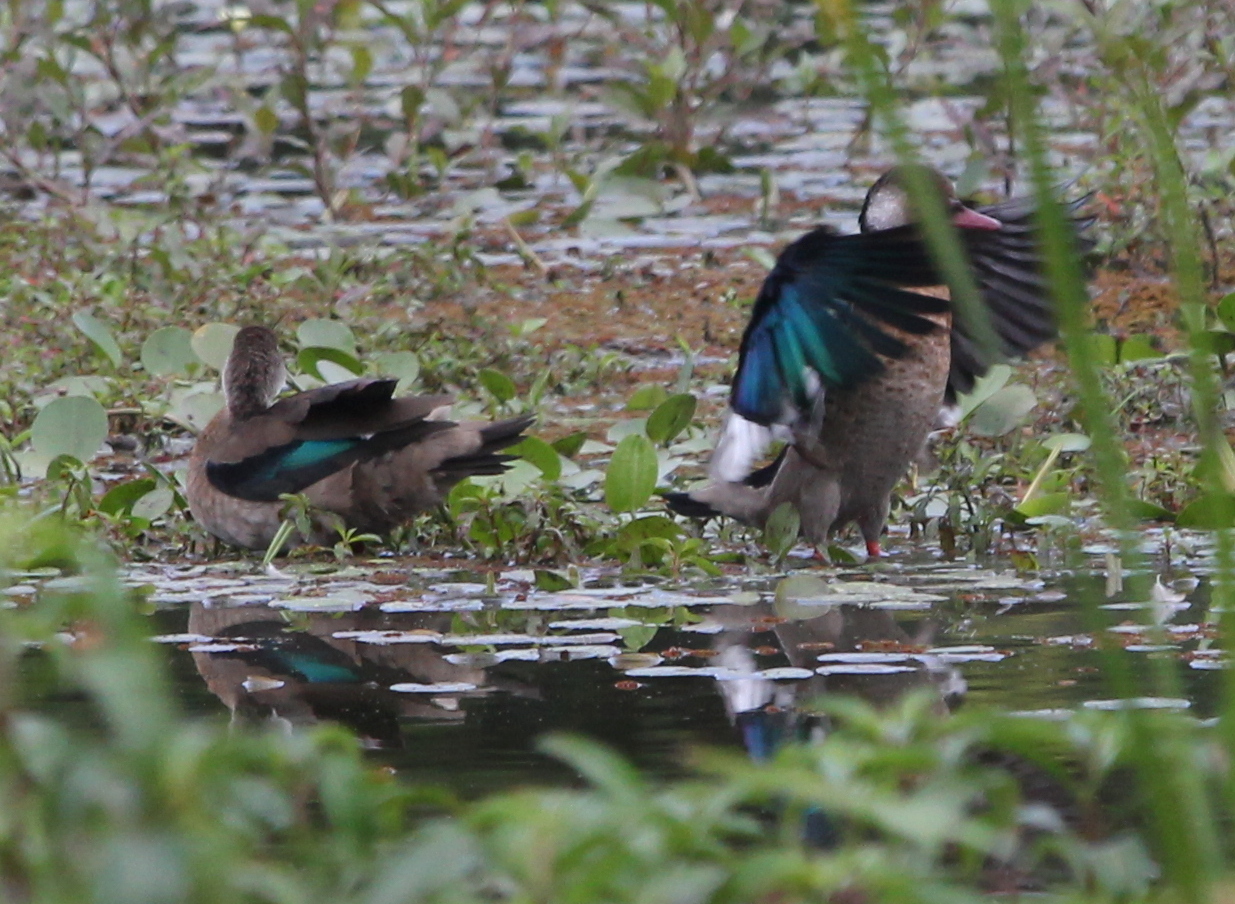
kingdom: Animalia
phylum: Chordata
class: Aves
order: Anseriformes
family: Anatidae
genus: Amazonetta
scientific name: Amazonetta brasiliensis
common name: Brazilian teal
